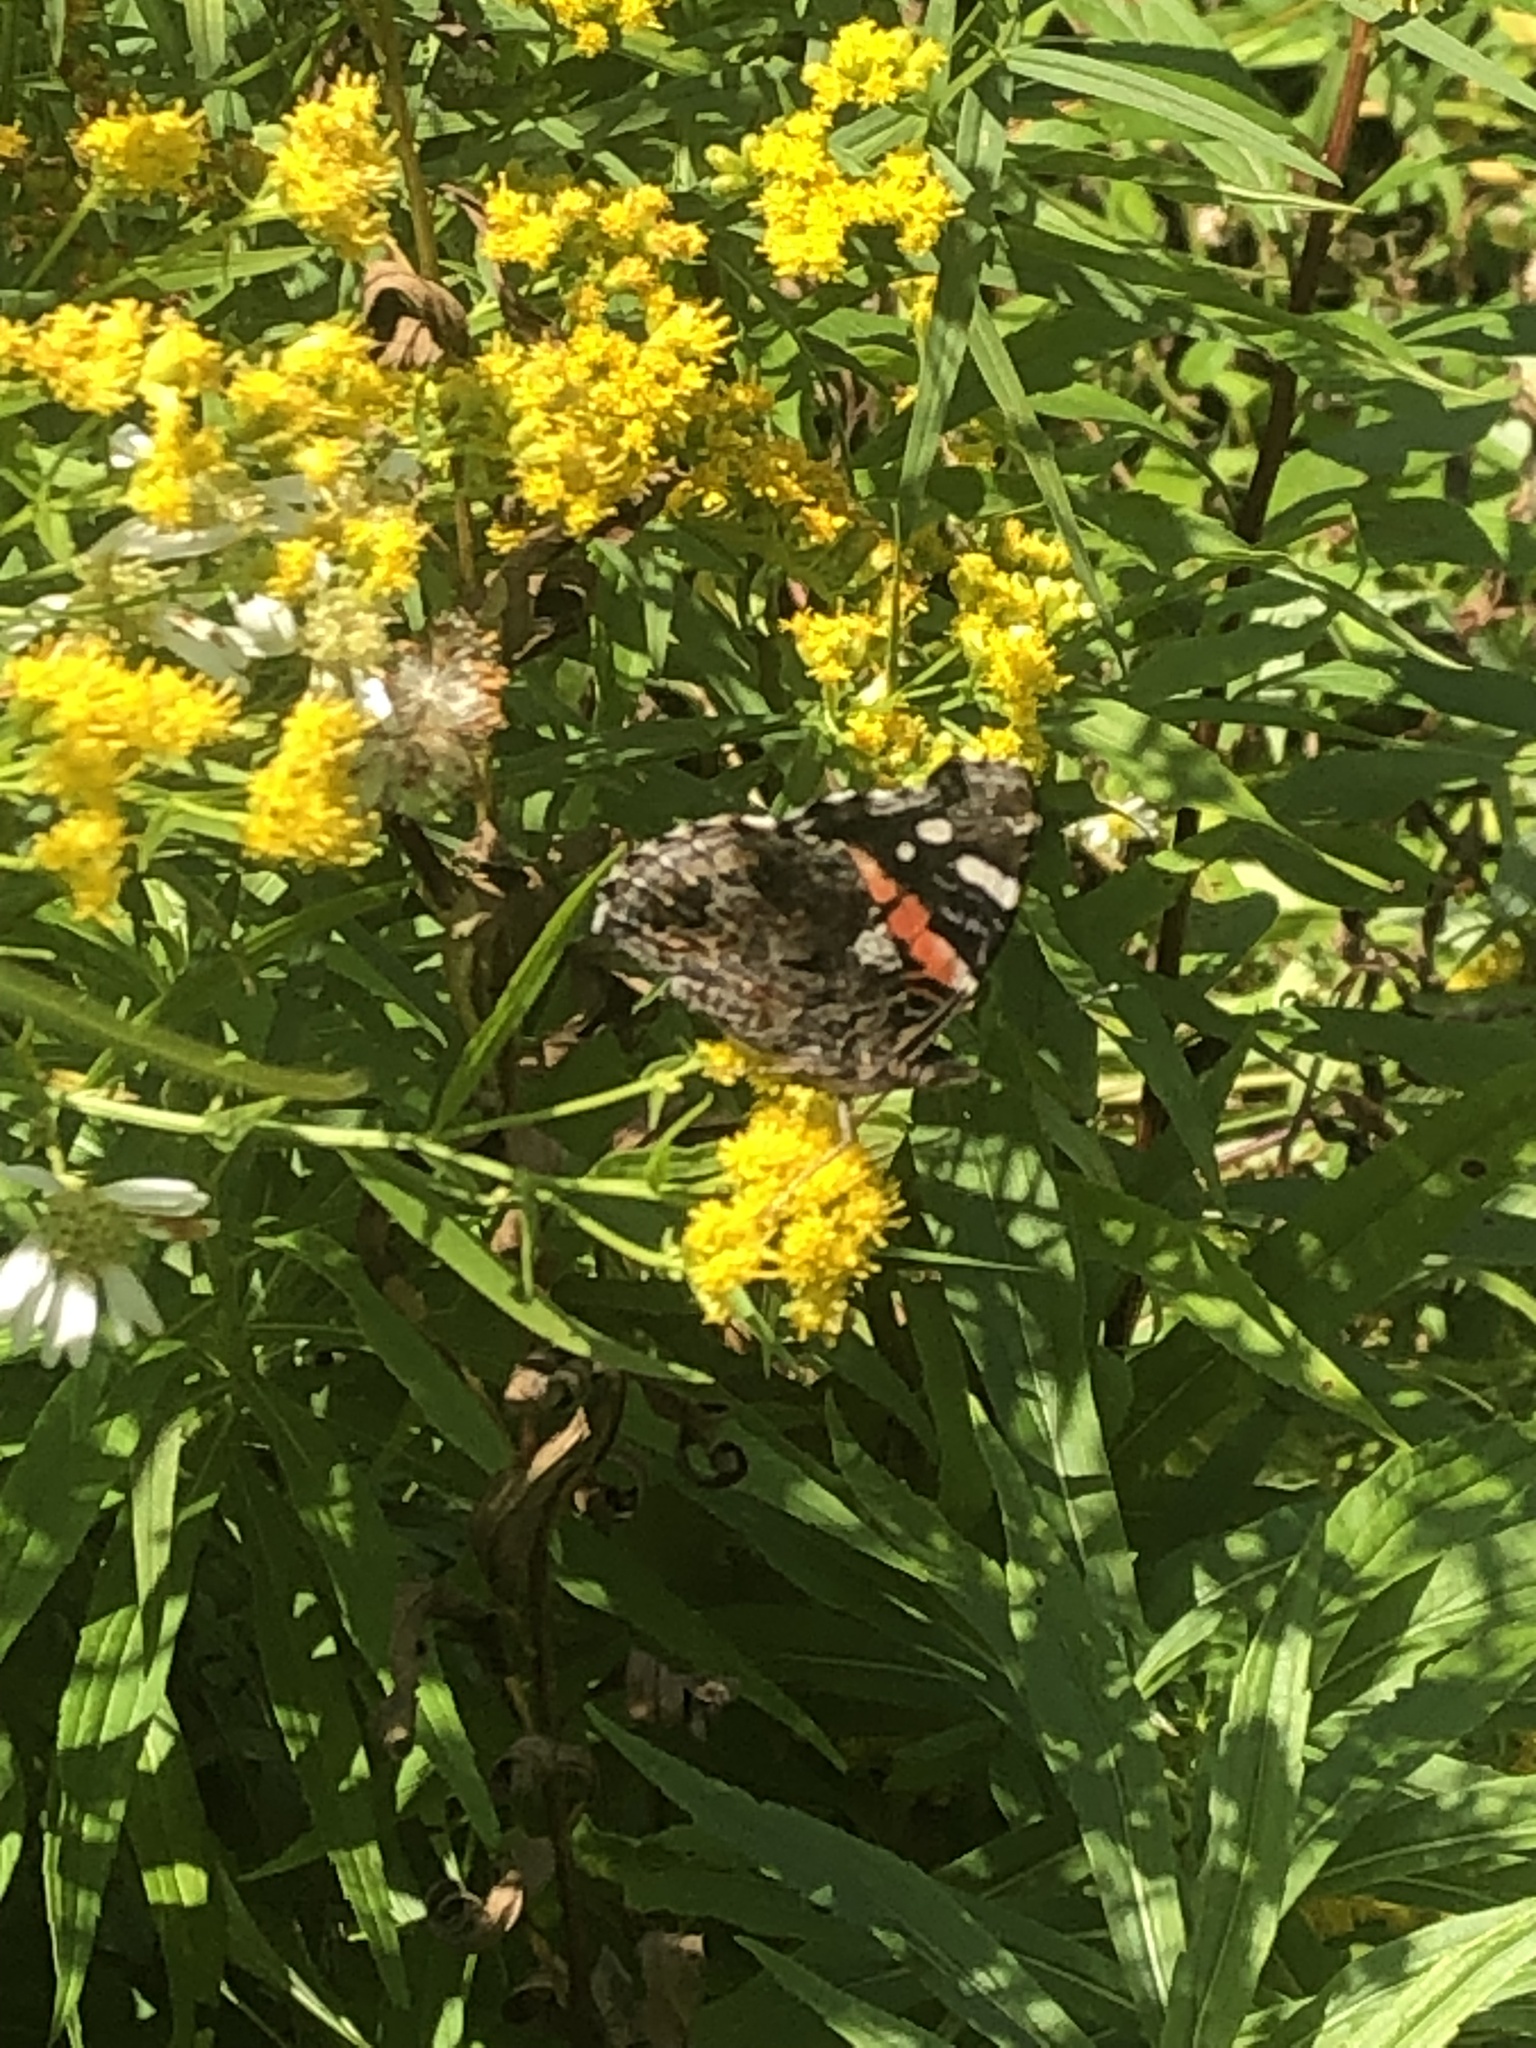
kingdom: Animalia
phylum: Arthropoda
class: Insecta
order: Lepidoptera
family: Nymphalidae
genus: Vanessa
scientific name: Vanessa atalanta
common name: Red admiral
